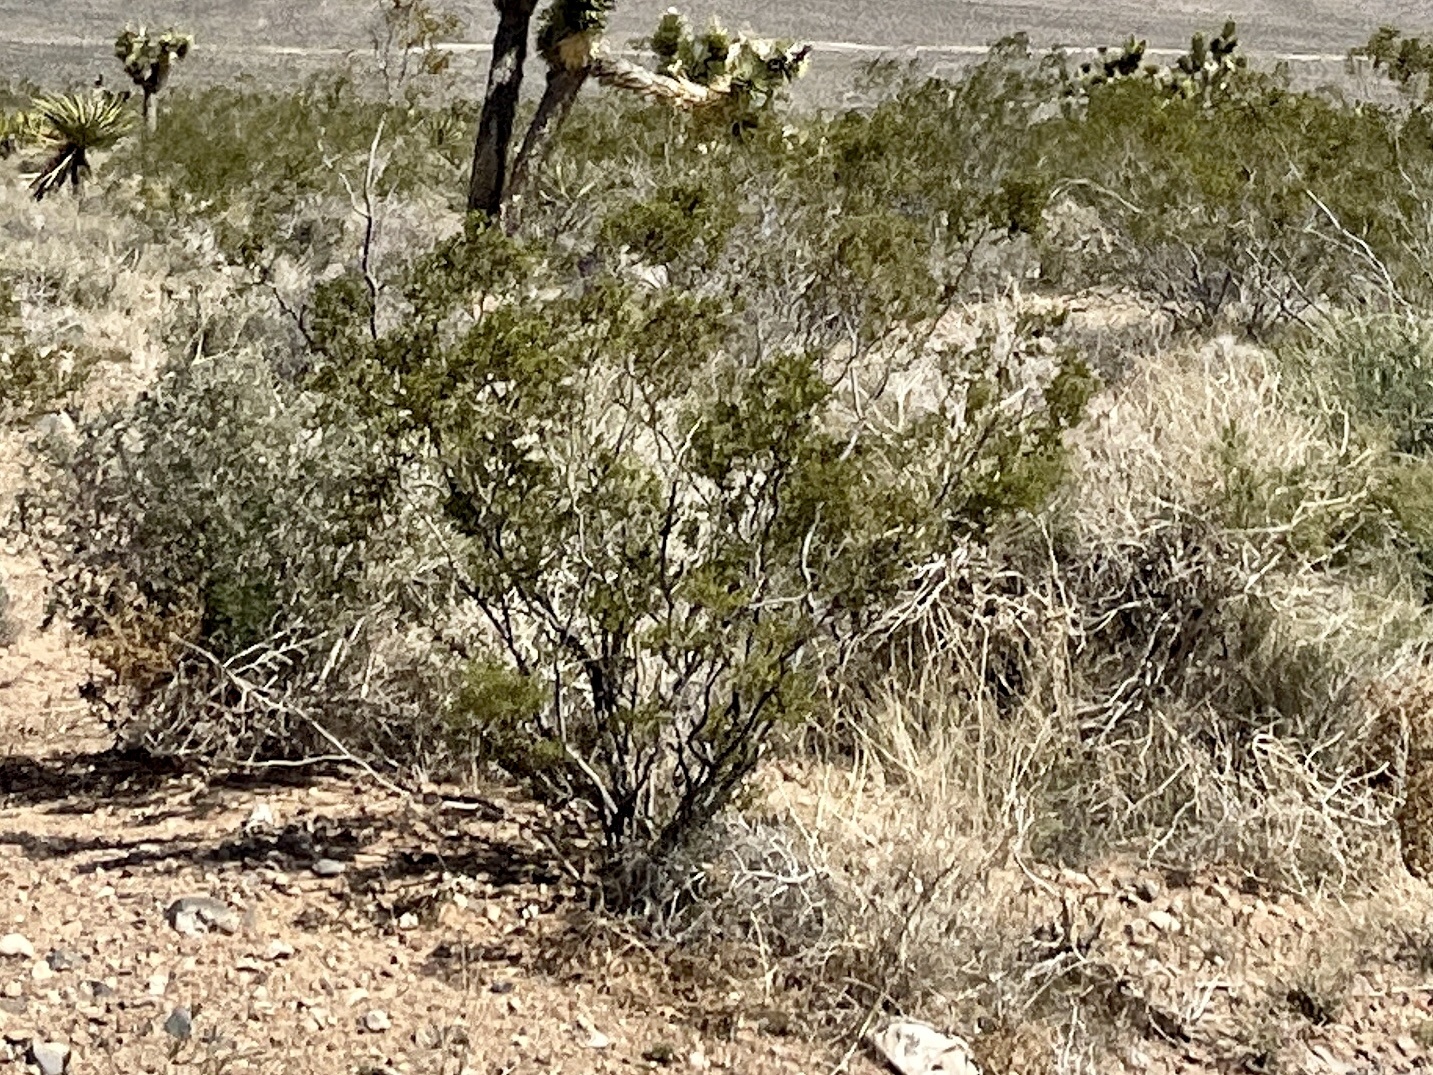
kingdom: Plantae
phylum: Tracheophyta
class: Magnoliopsida
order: Zygophyllales
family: Zygophyllaceae
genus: Larrea
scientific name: Larrea tridentata
